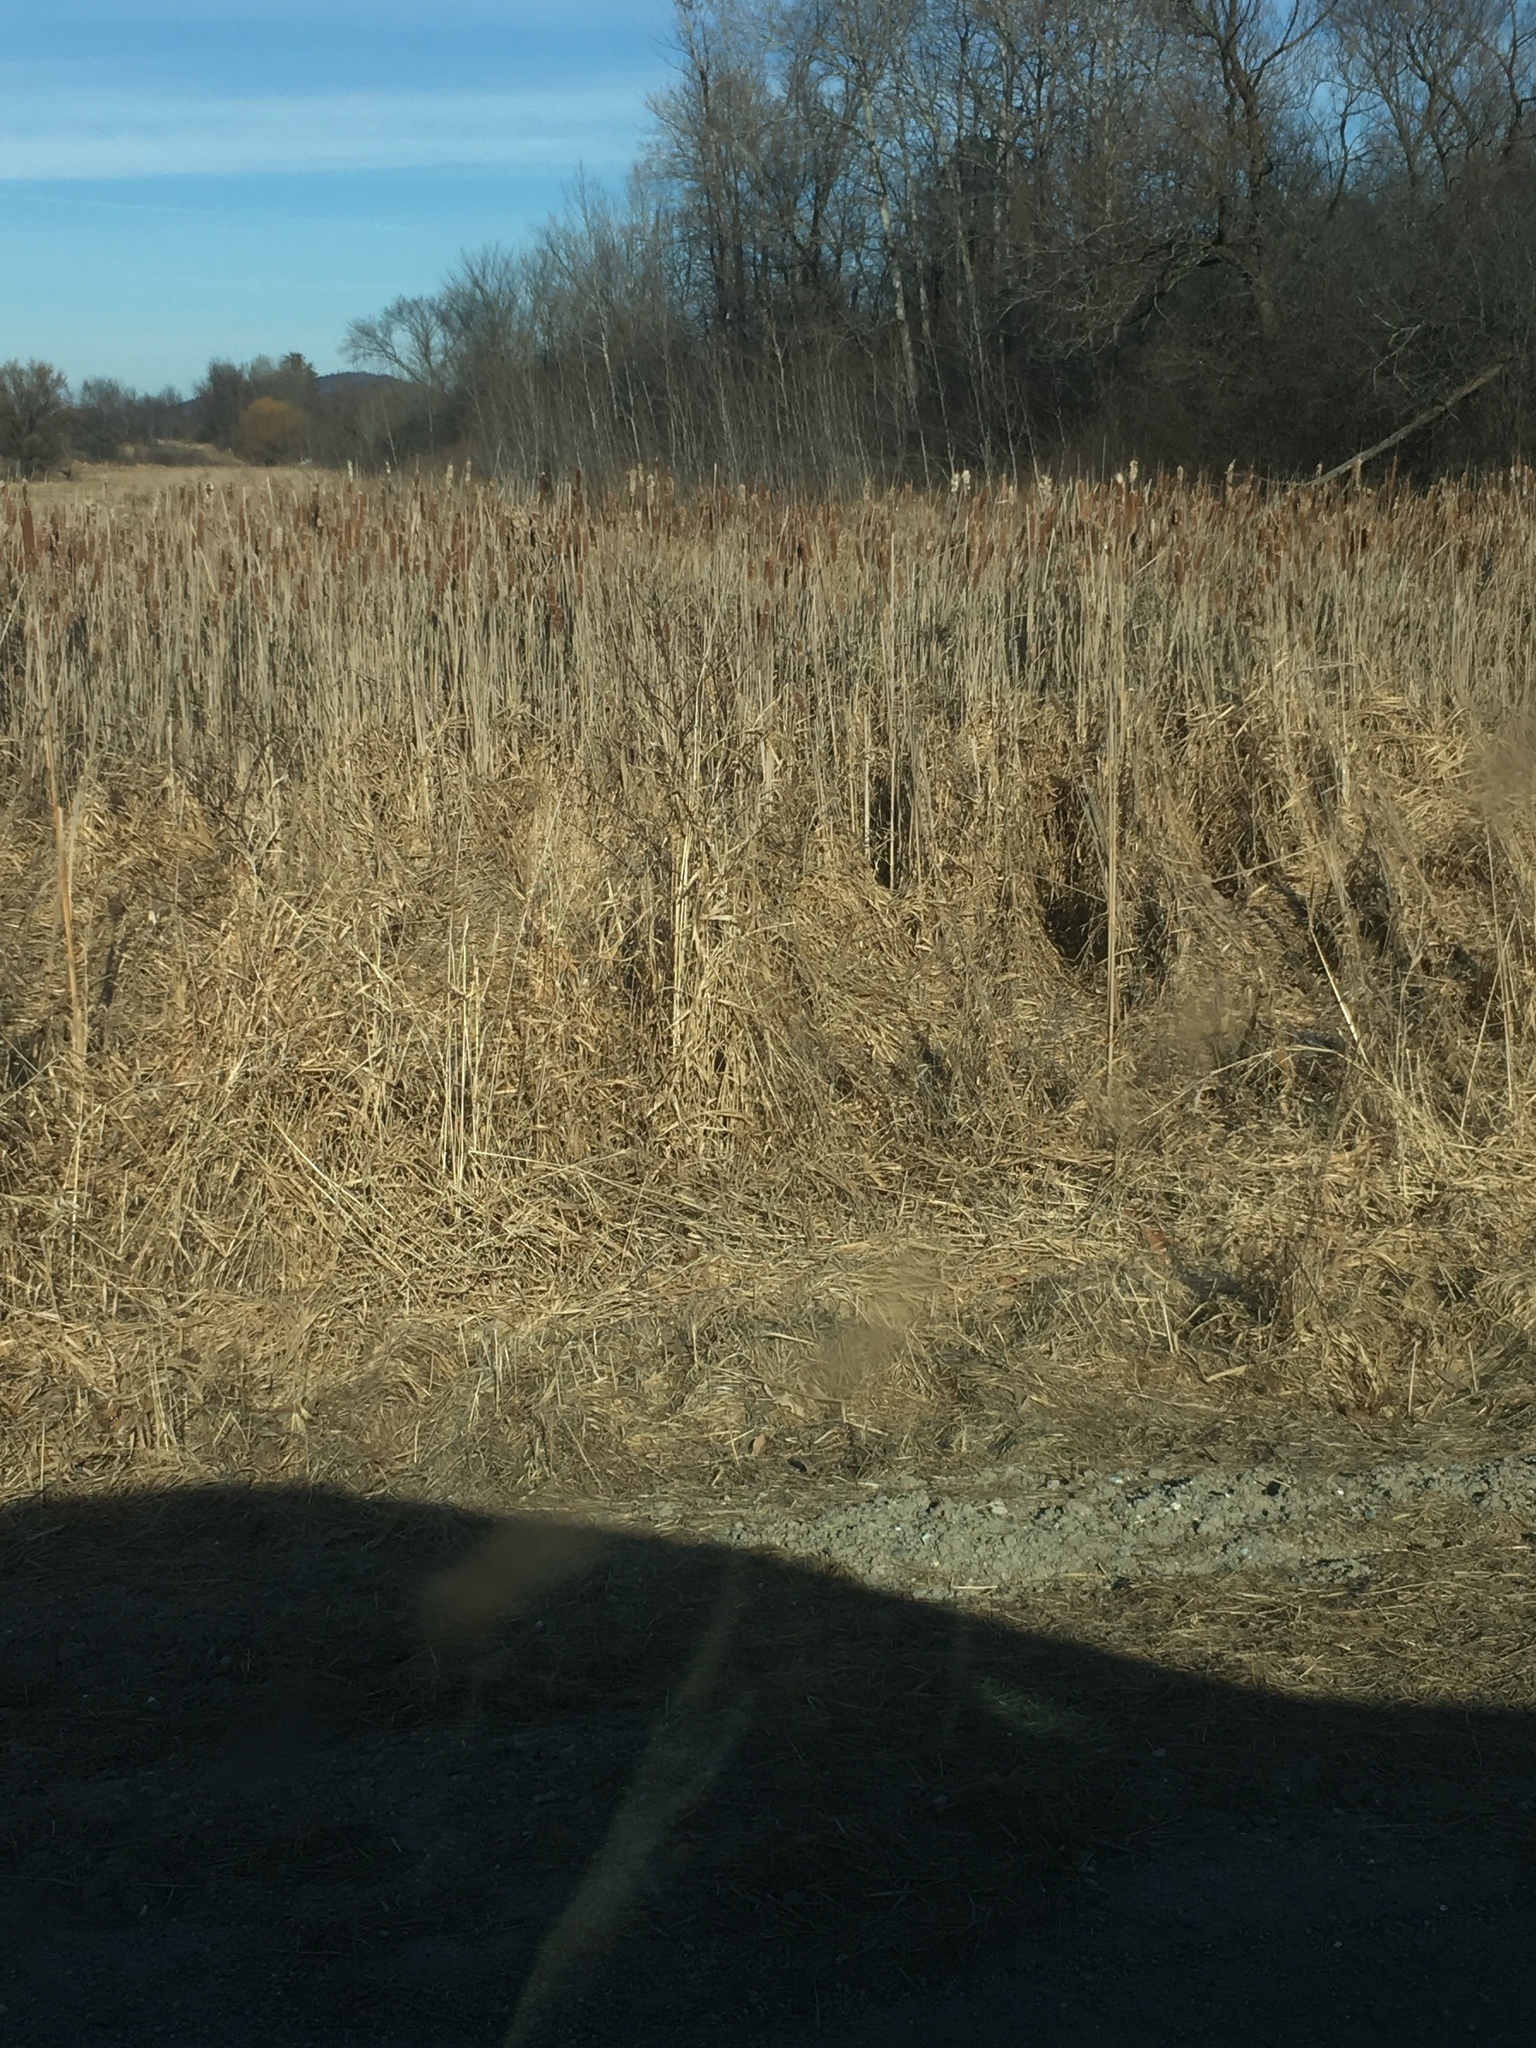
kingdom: Plantae
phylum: Tracheophyta
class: Liliopsida
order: Poales
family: Typhaceae
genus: Typha
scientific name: Typha
